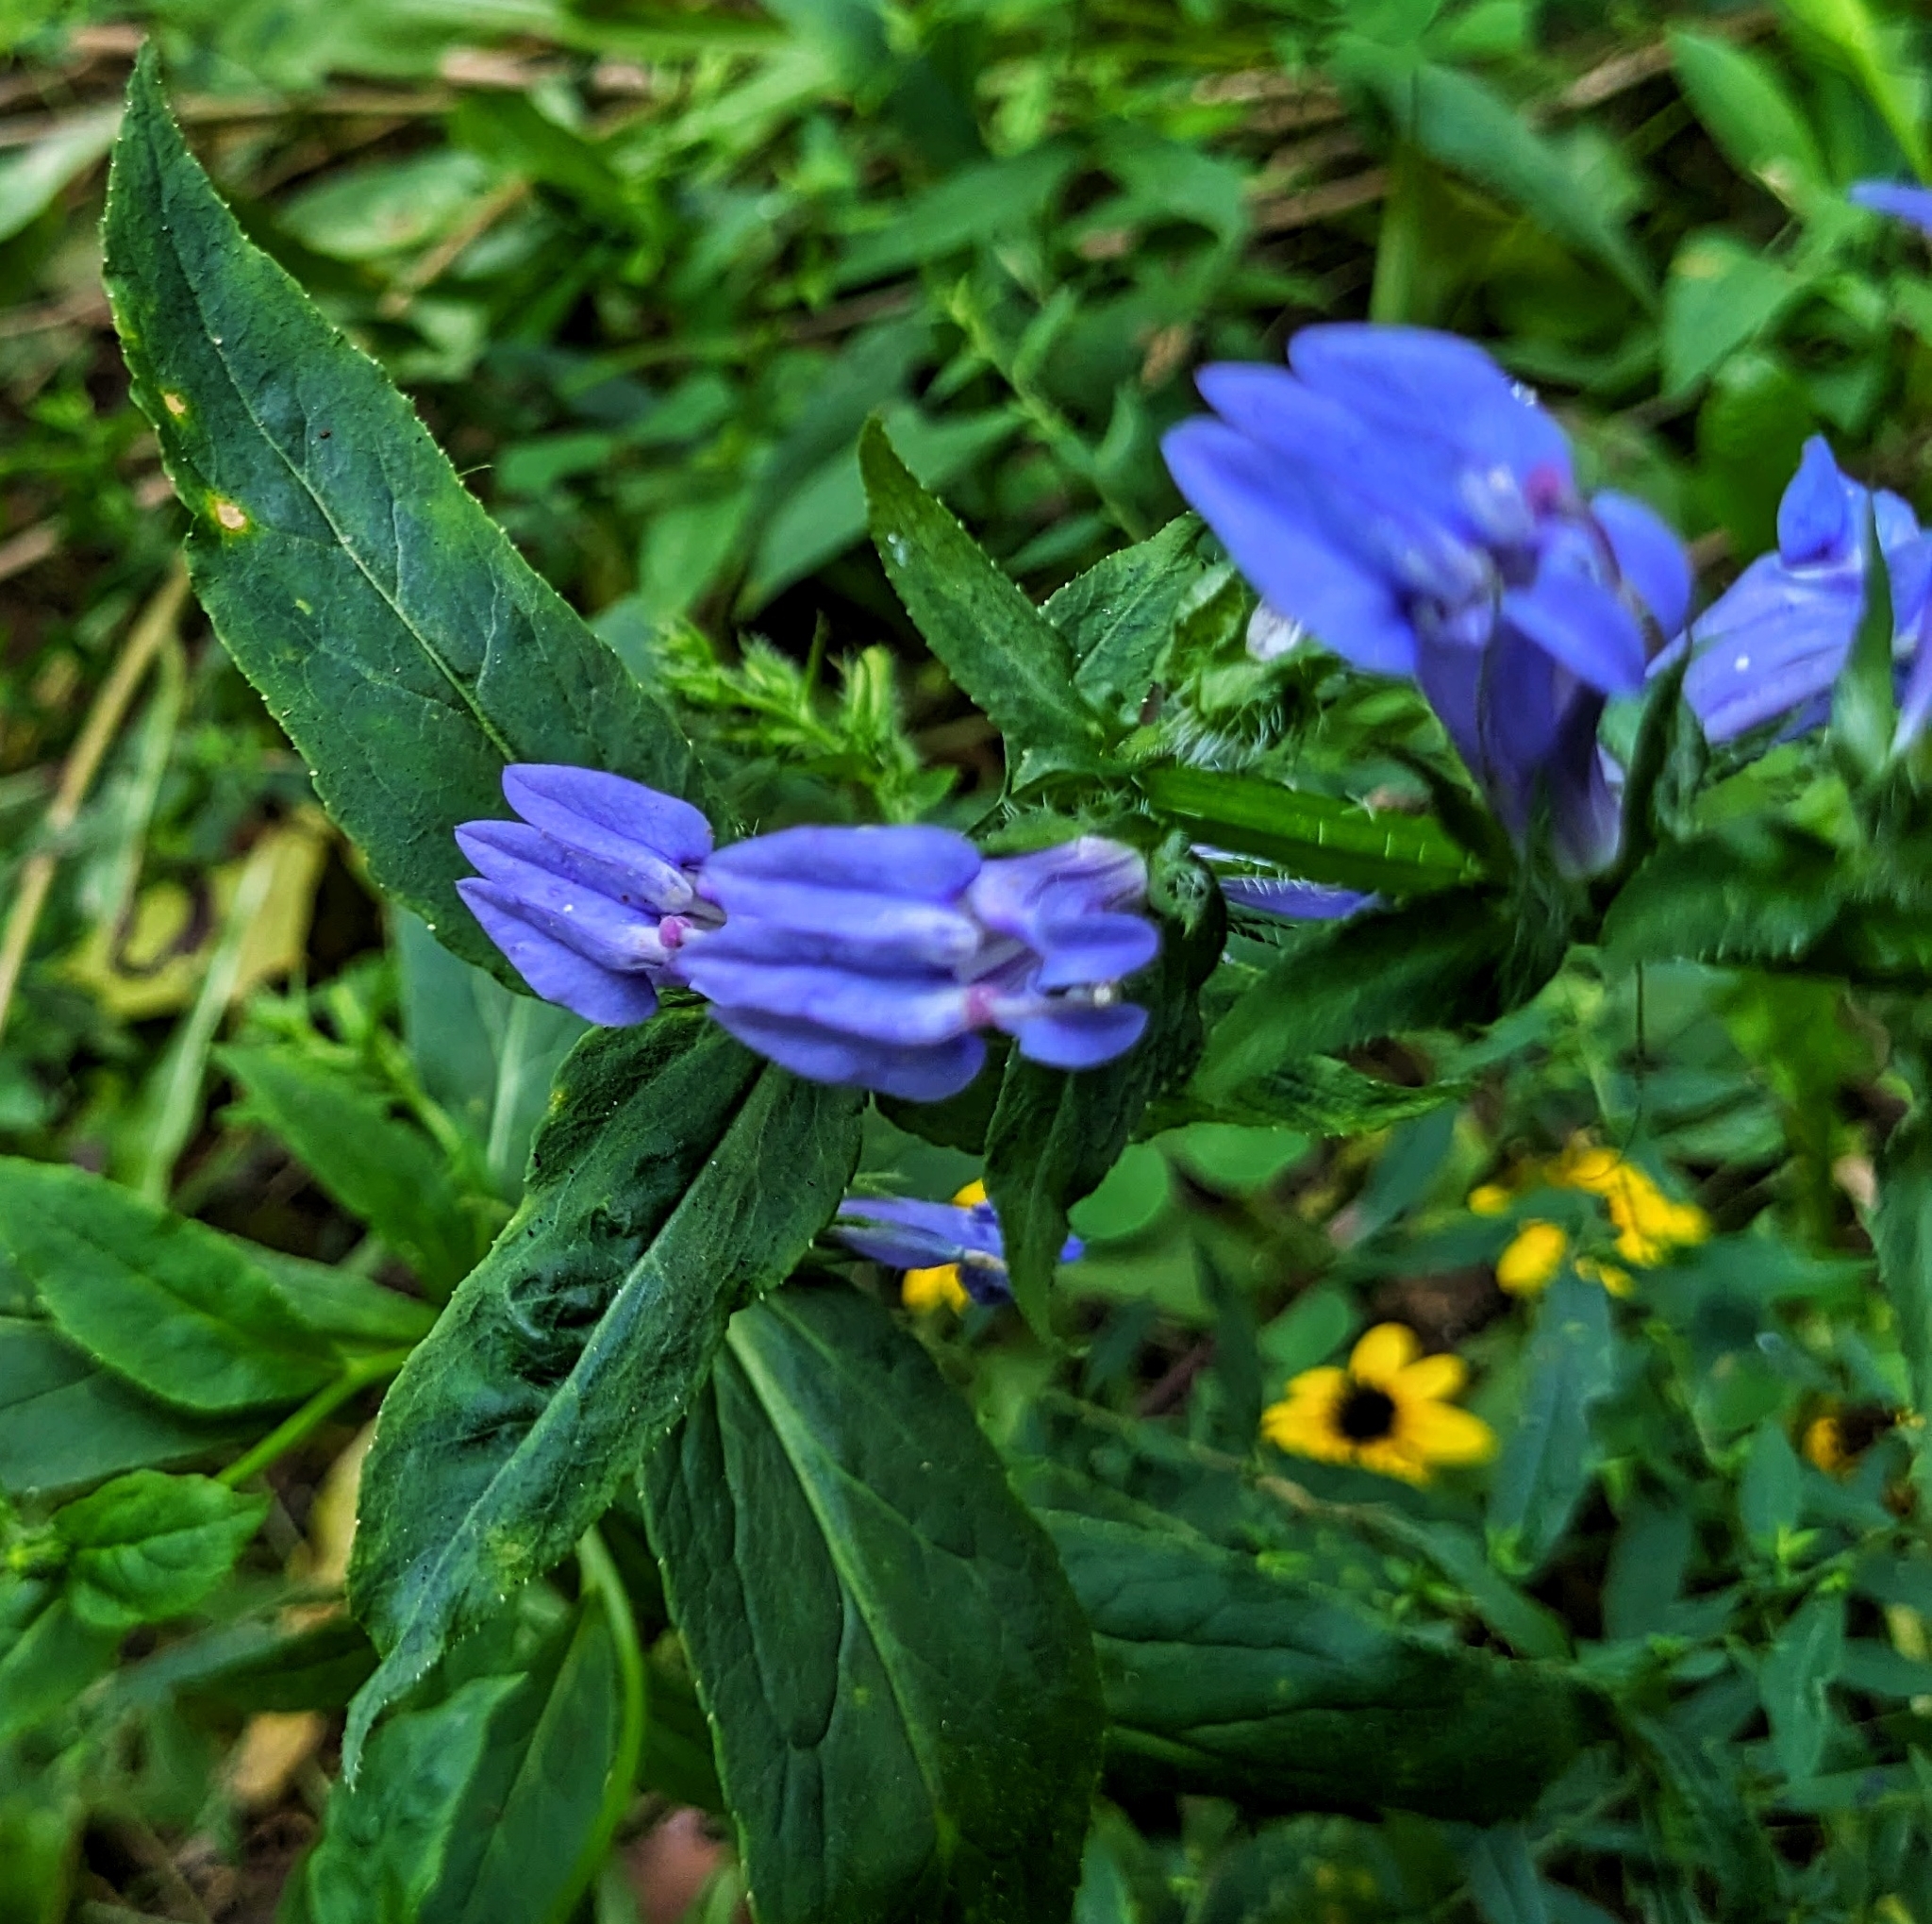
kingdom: Plantae
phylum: Tracheophyta
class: Magnoliopsida
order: Asterales
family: Campanulaceae
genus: Lobelia
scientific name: Lobelia siphilitica
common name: Great lobelia
